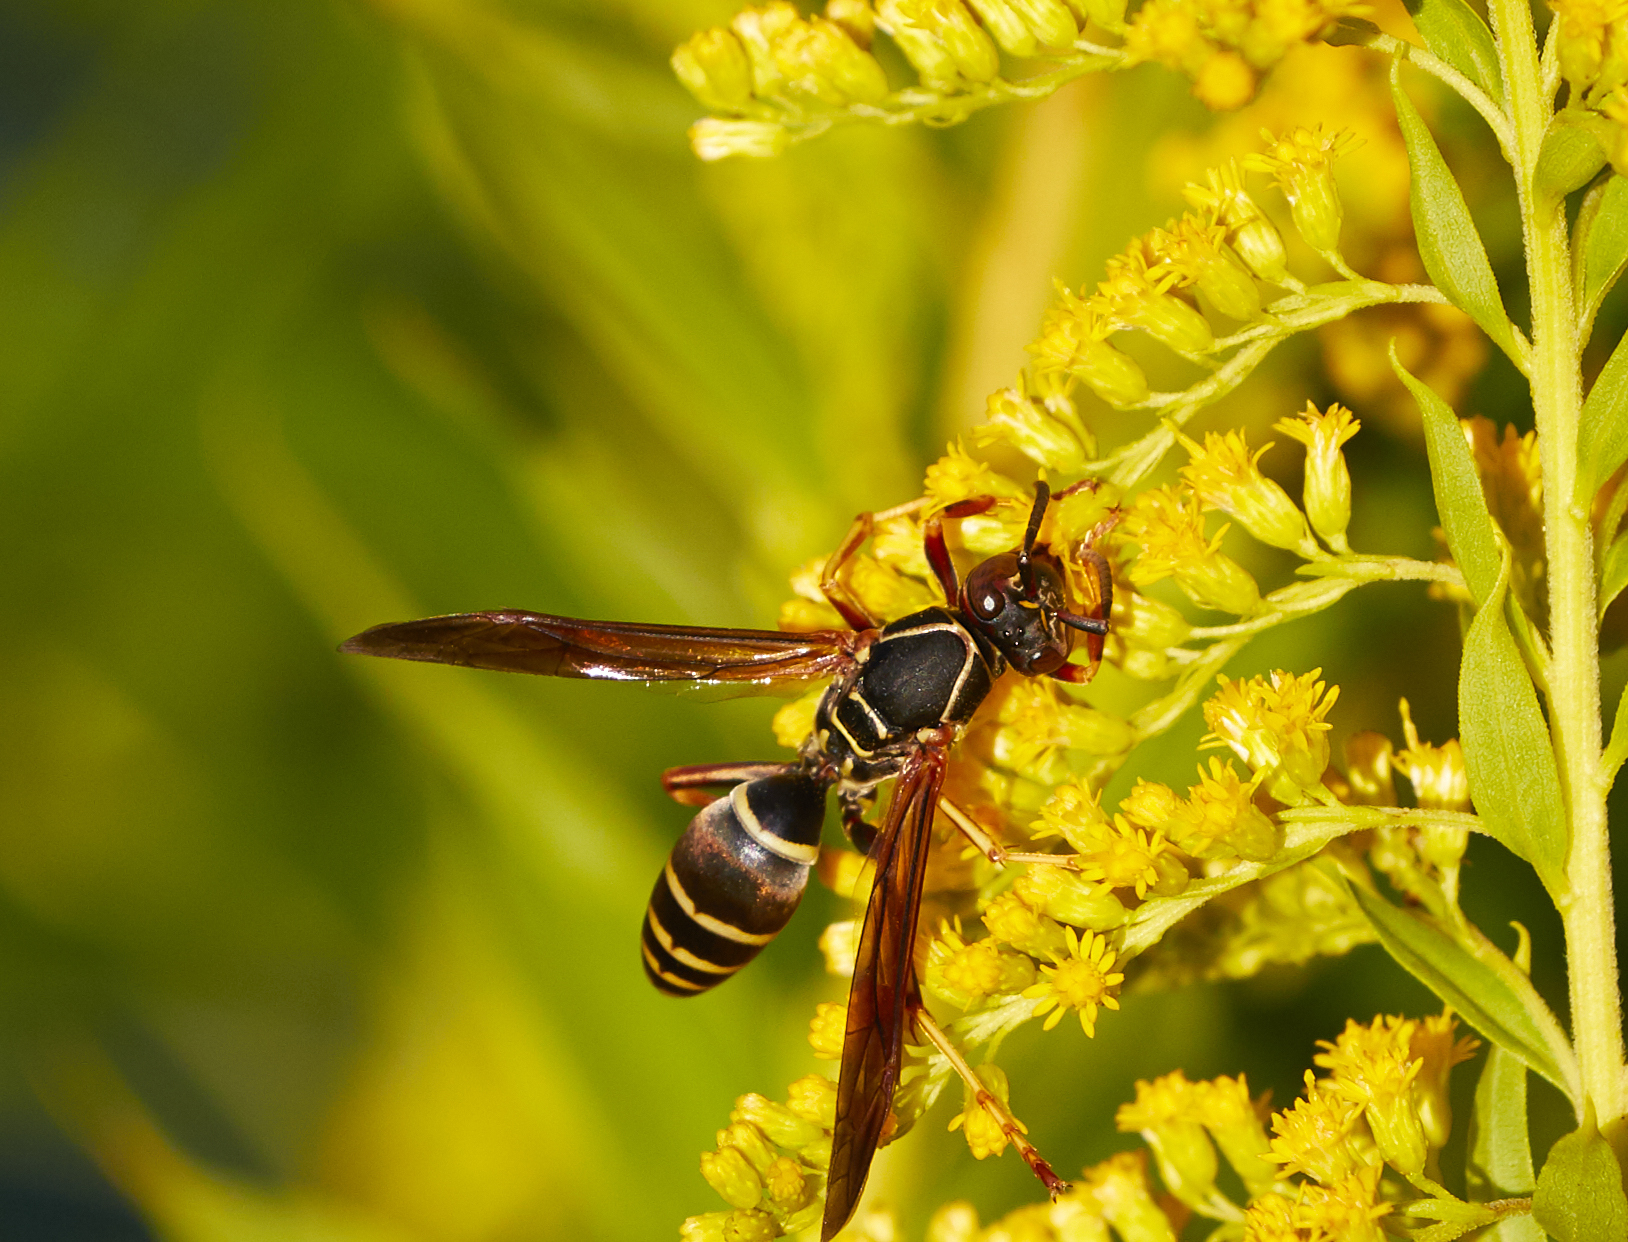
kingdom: Animalia
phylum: Arthropoda
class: Insecta
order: Hymenoptera
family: Eumenidae
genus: Polistes
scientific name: Polistes fuscatus
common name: Dark paper wasp
